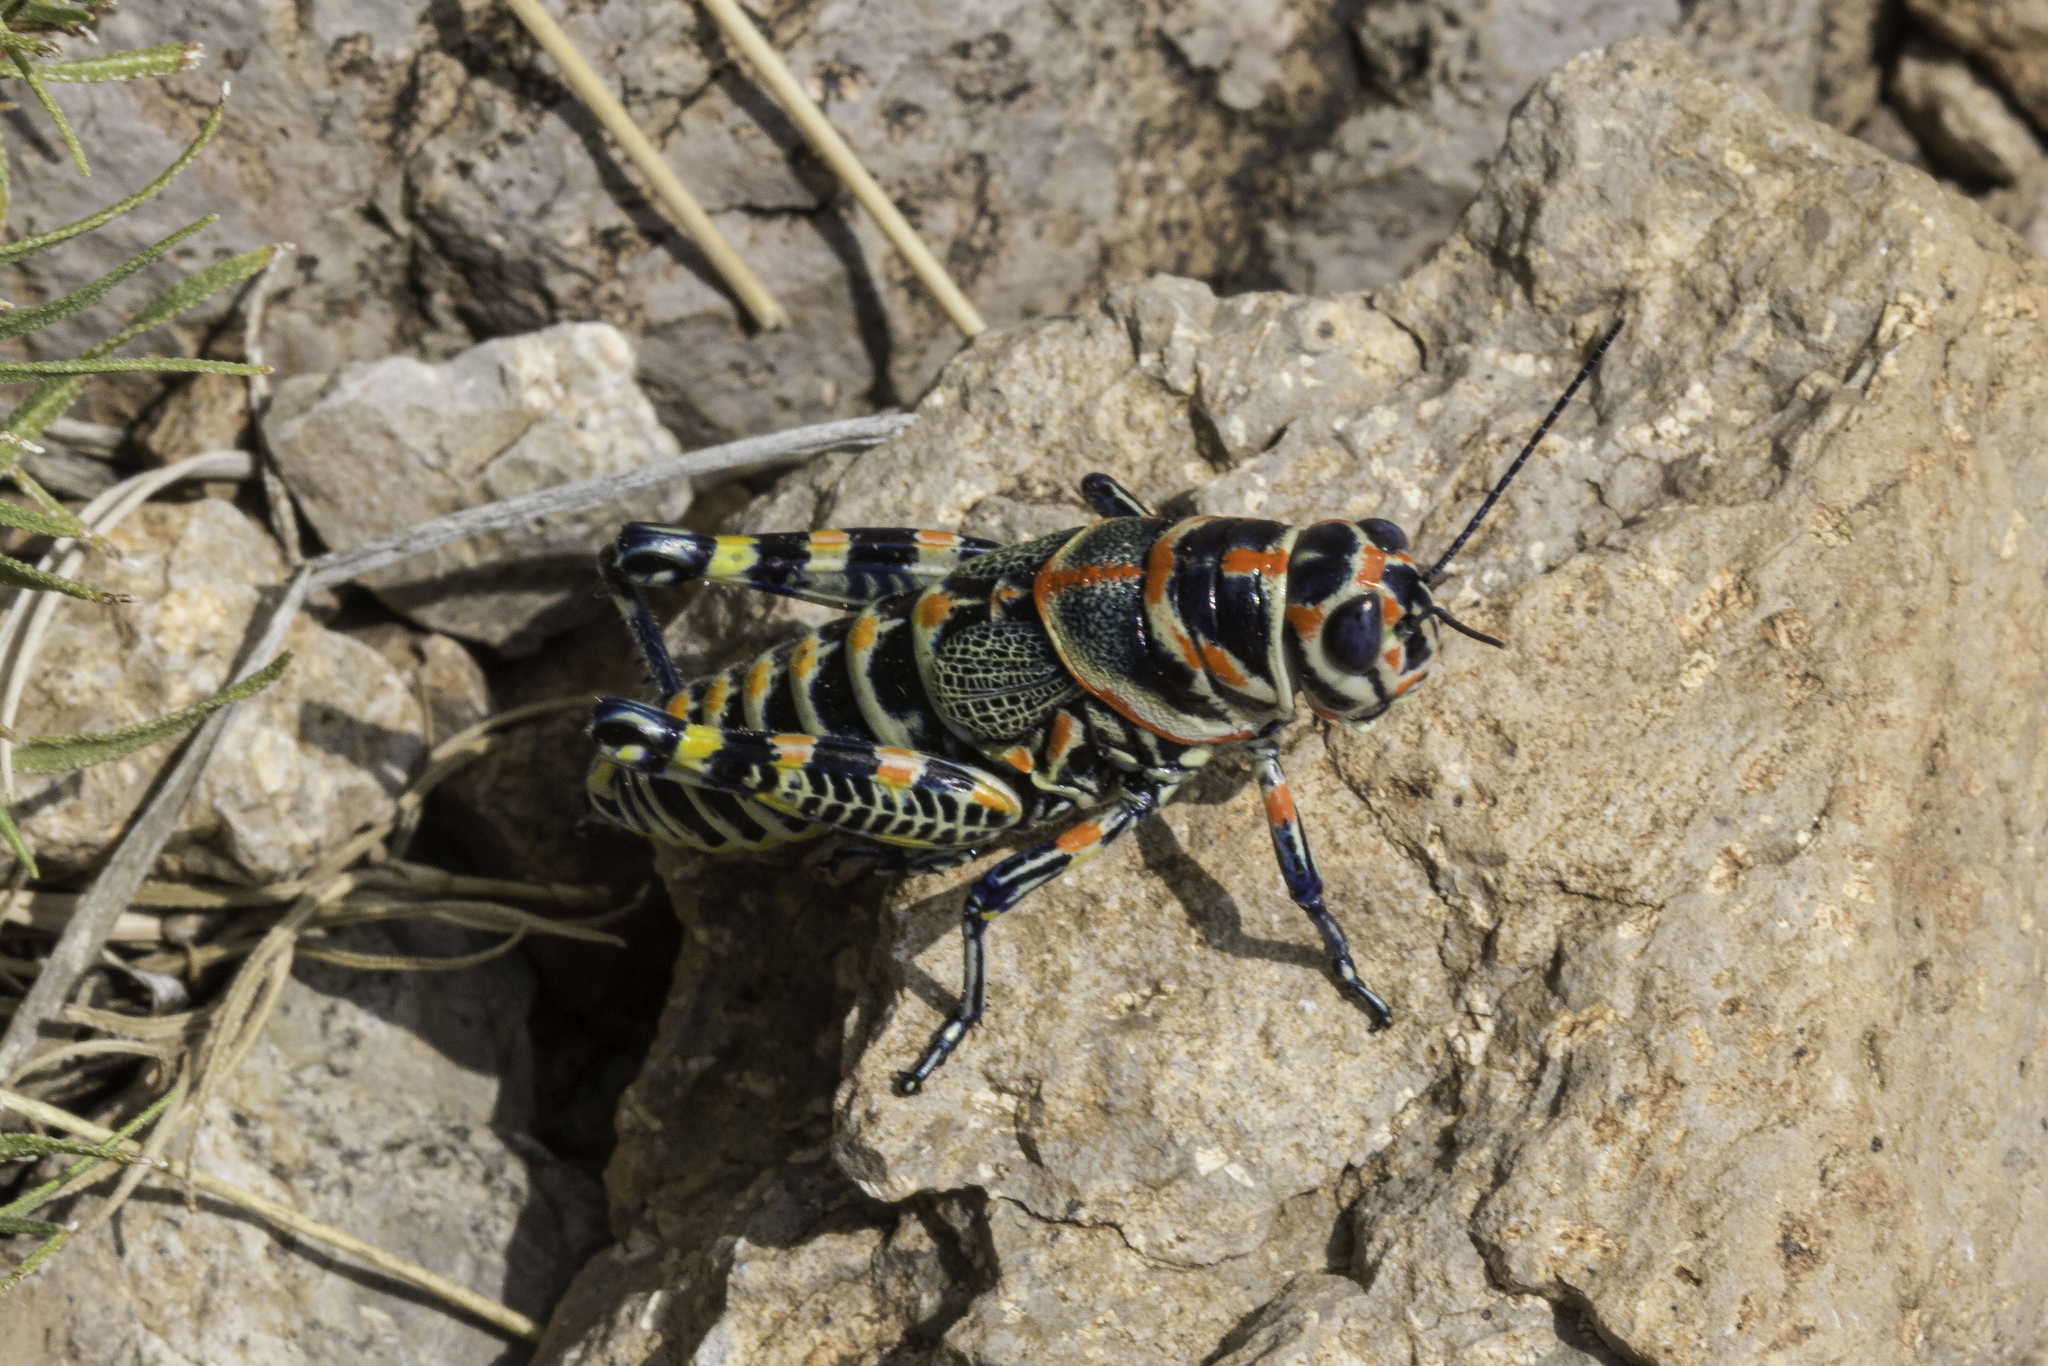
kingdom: Animalia
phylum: Arthropoda
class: Insecta
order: Orthoptera
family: Acrididae
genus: Dactylotum
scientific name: Dactylotum bicolor
